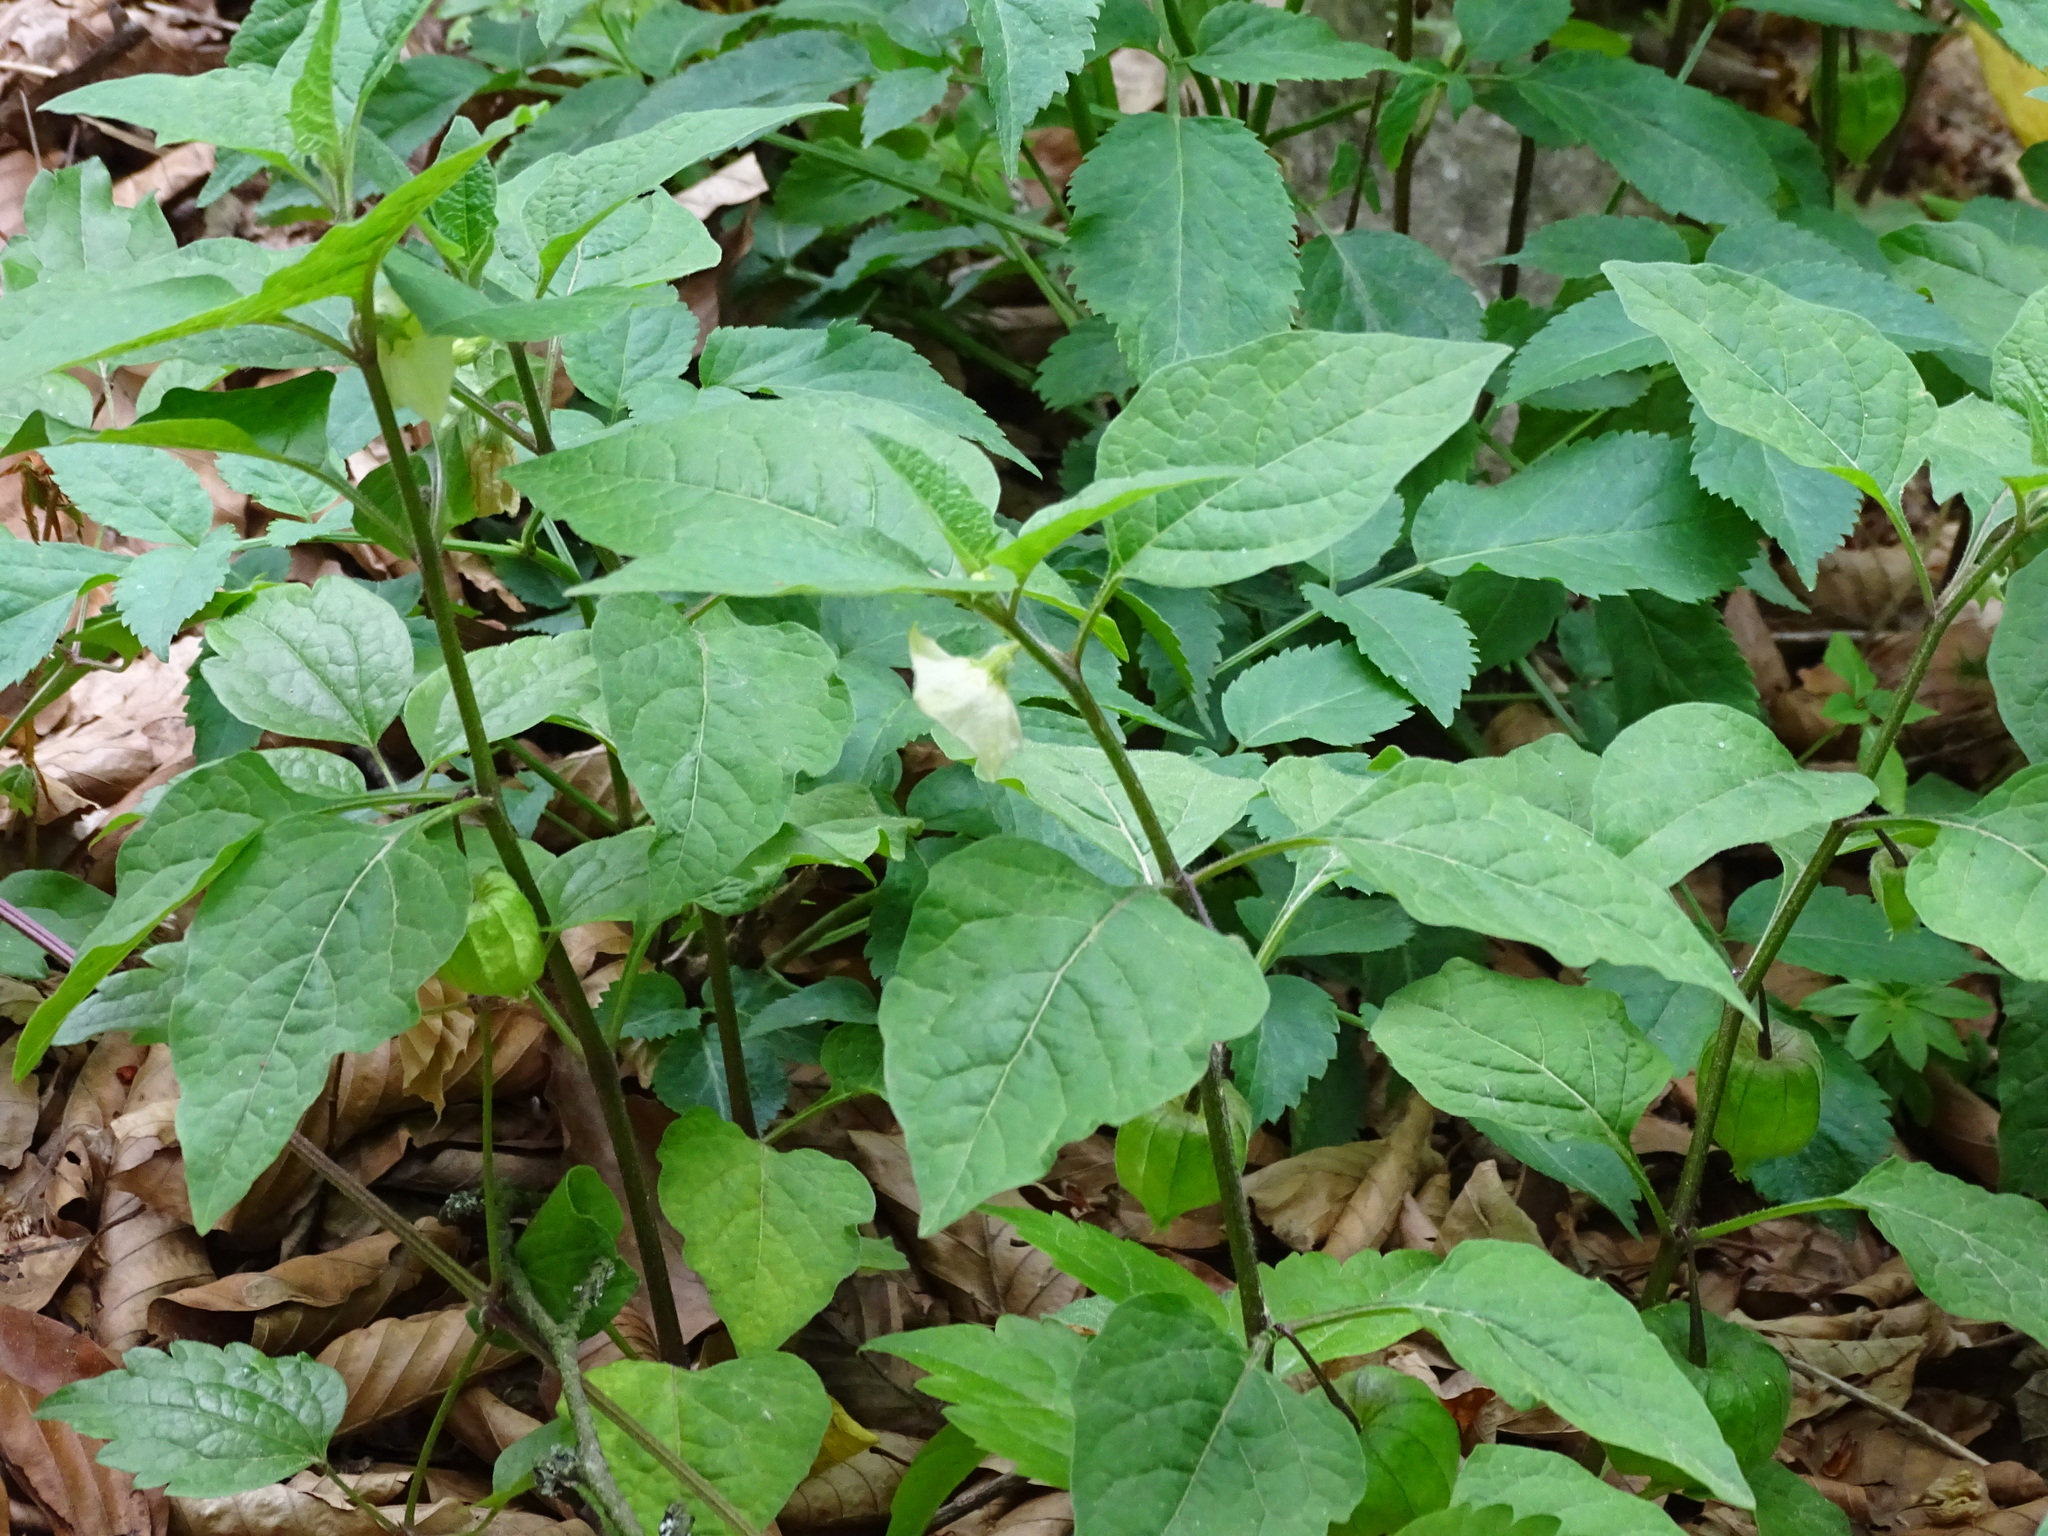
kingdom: Plantae
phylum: Tracheophyta
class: Magnoliopsida
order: Solanales
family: Solanaceae
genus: Alkekengi
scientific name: Alkekengi officinarum
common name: Japanese-lantern
